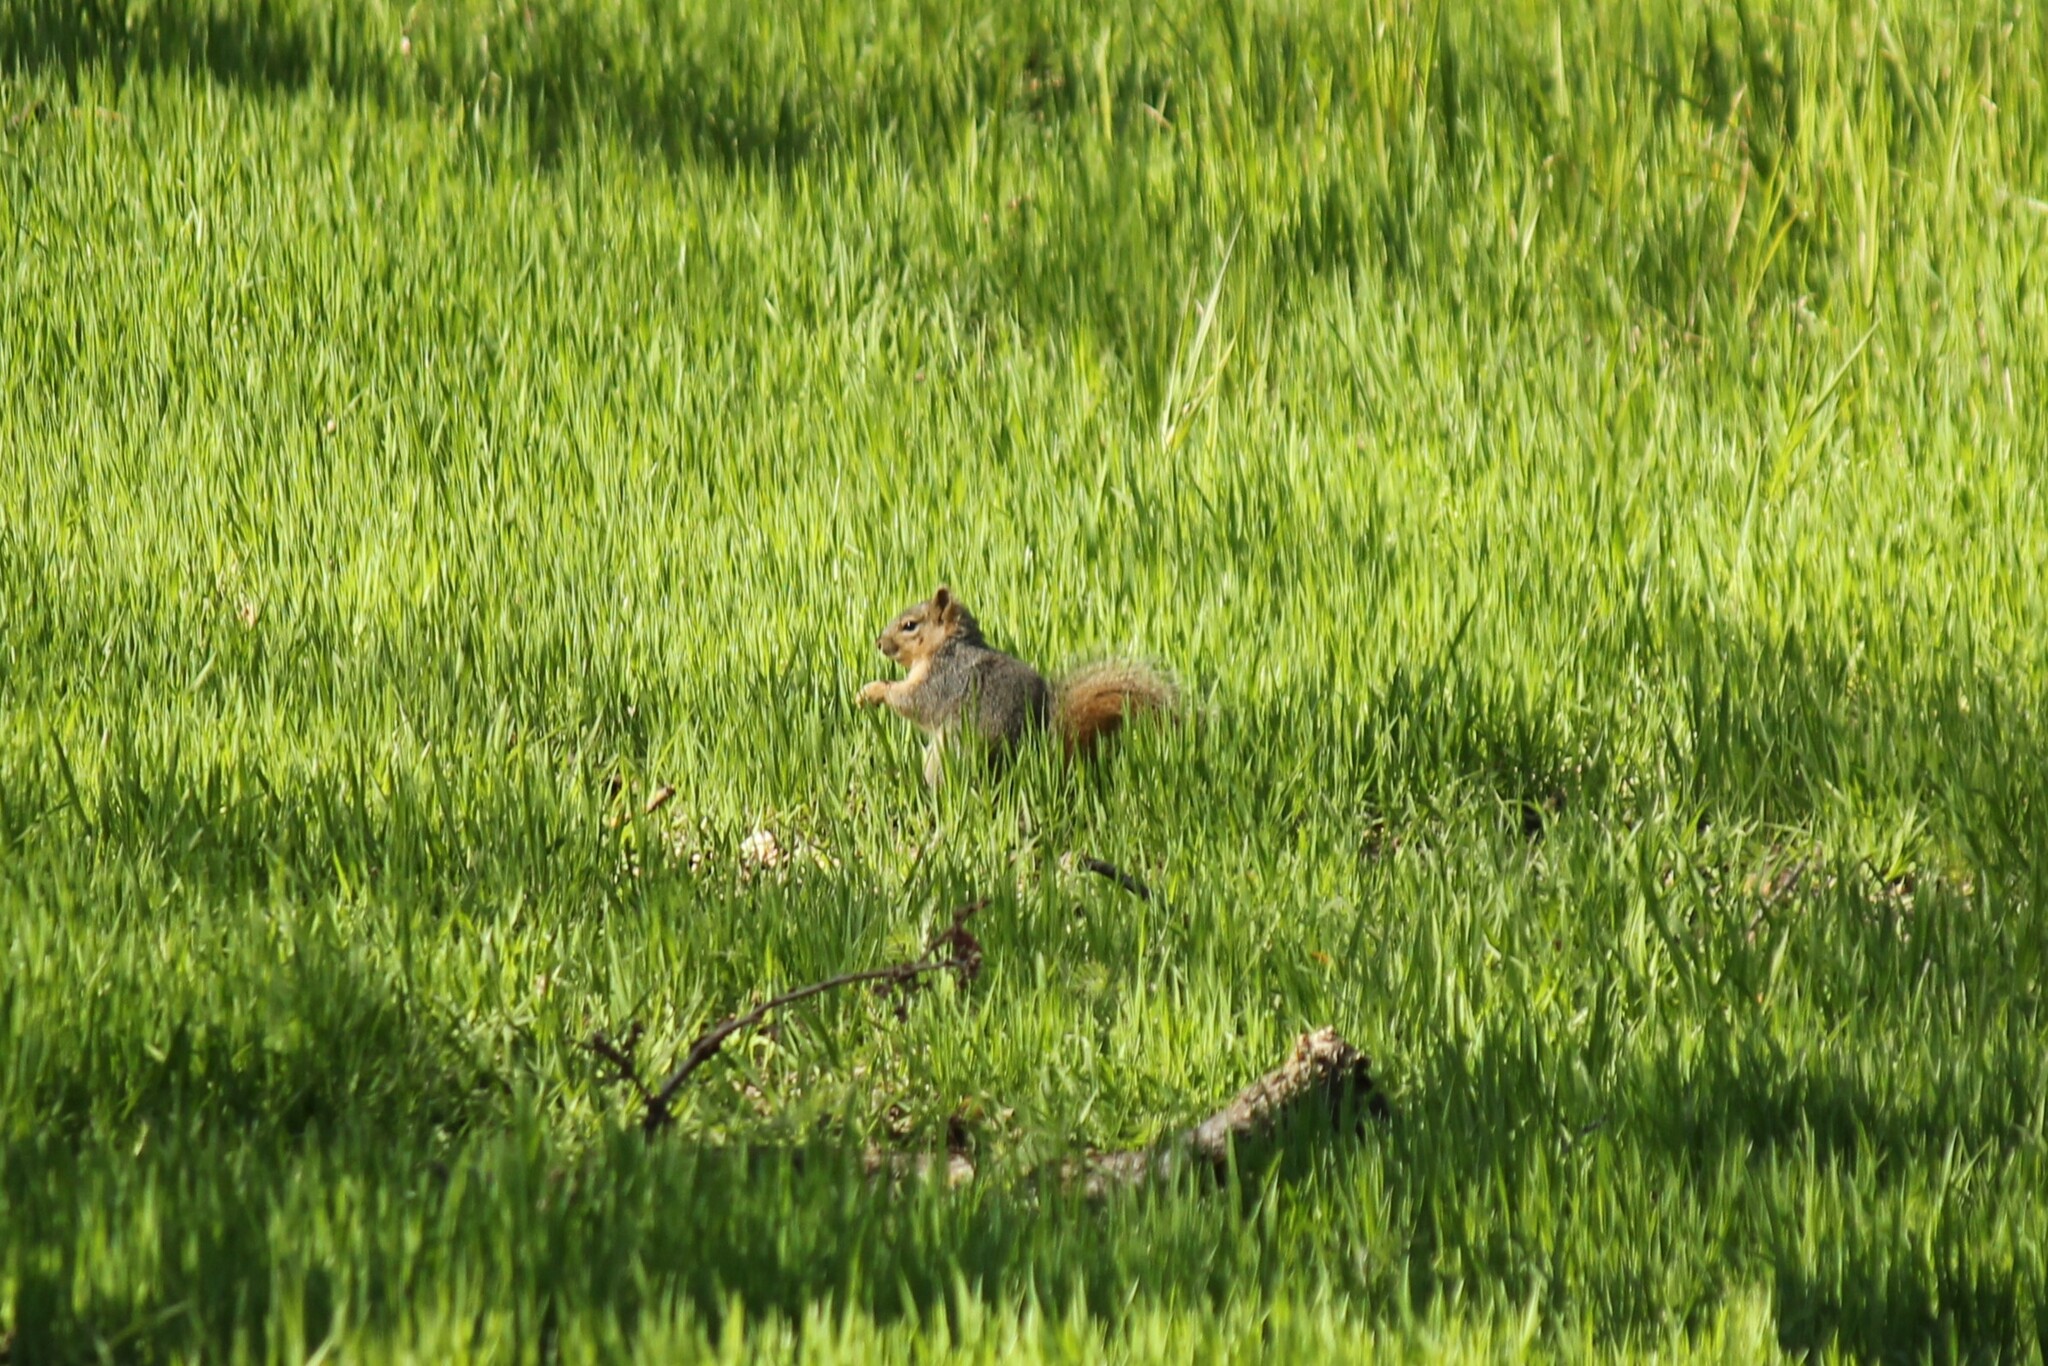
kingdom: Animalia
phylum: Chordata
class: Mammalia
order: Rodentia
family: Sciuridae
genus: Sciurus
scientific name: Sciurus niger
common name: Fox squirrel
